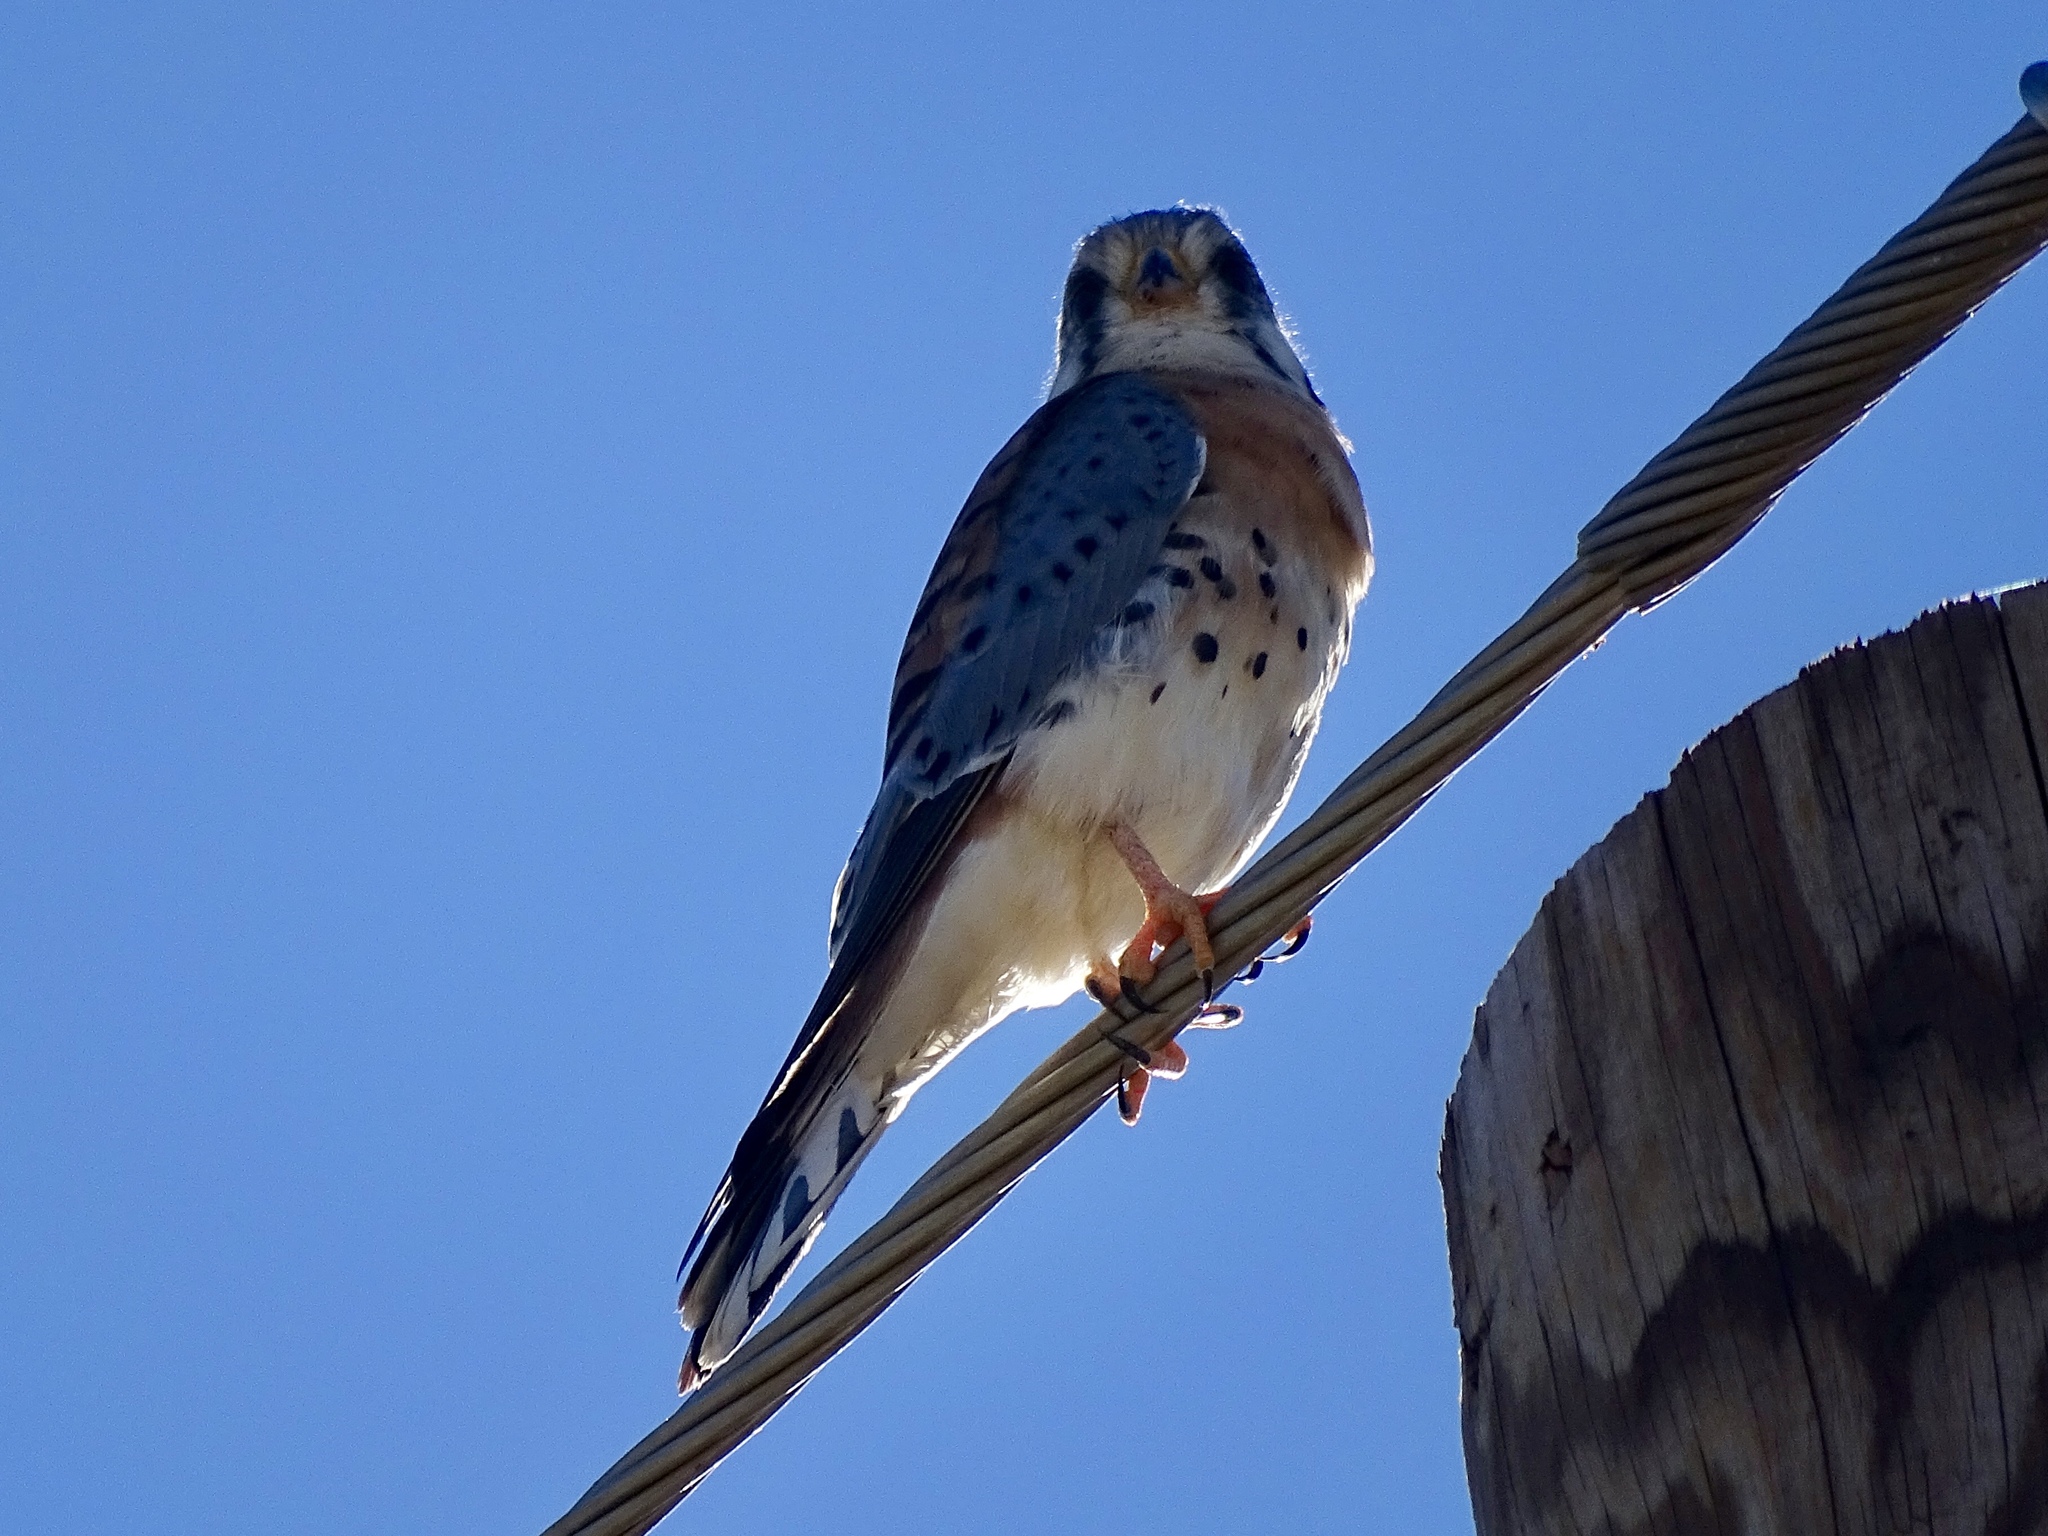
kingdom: Animalia
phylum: Chordata
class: Aves
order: Falconiformes
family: Falconidae
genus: Falco
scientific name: Falco sparverius
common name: American kestrel
